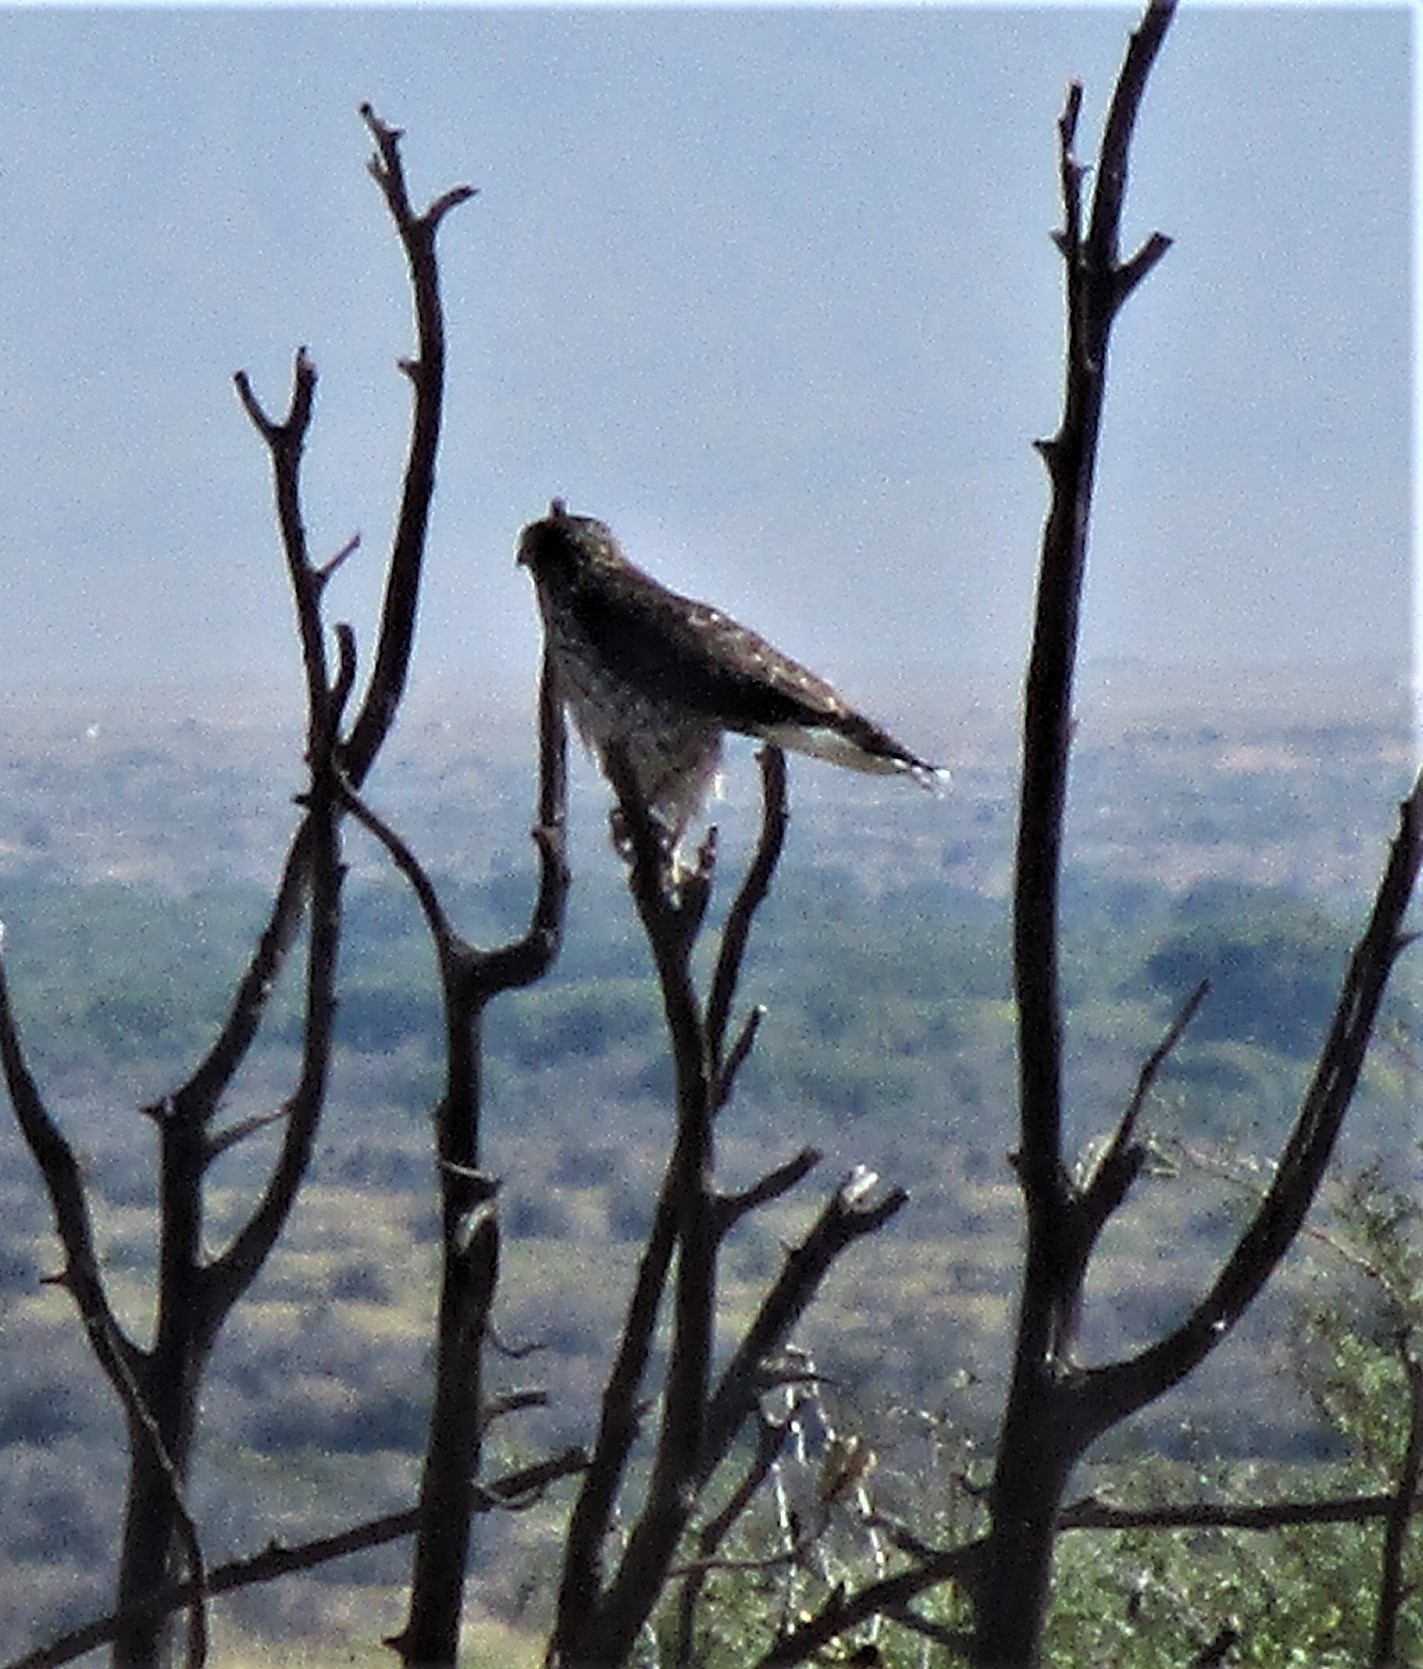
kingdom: Animalia
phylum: Chordata
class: Aves
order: Falconiformes
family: Falconidae
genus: Falco
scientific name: Falco columbarius
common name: Merlin
